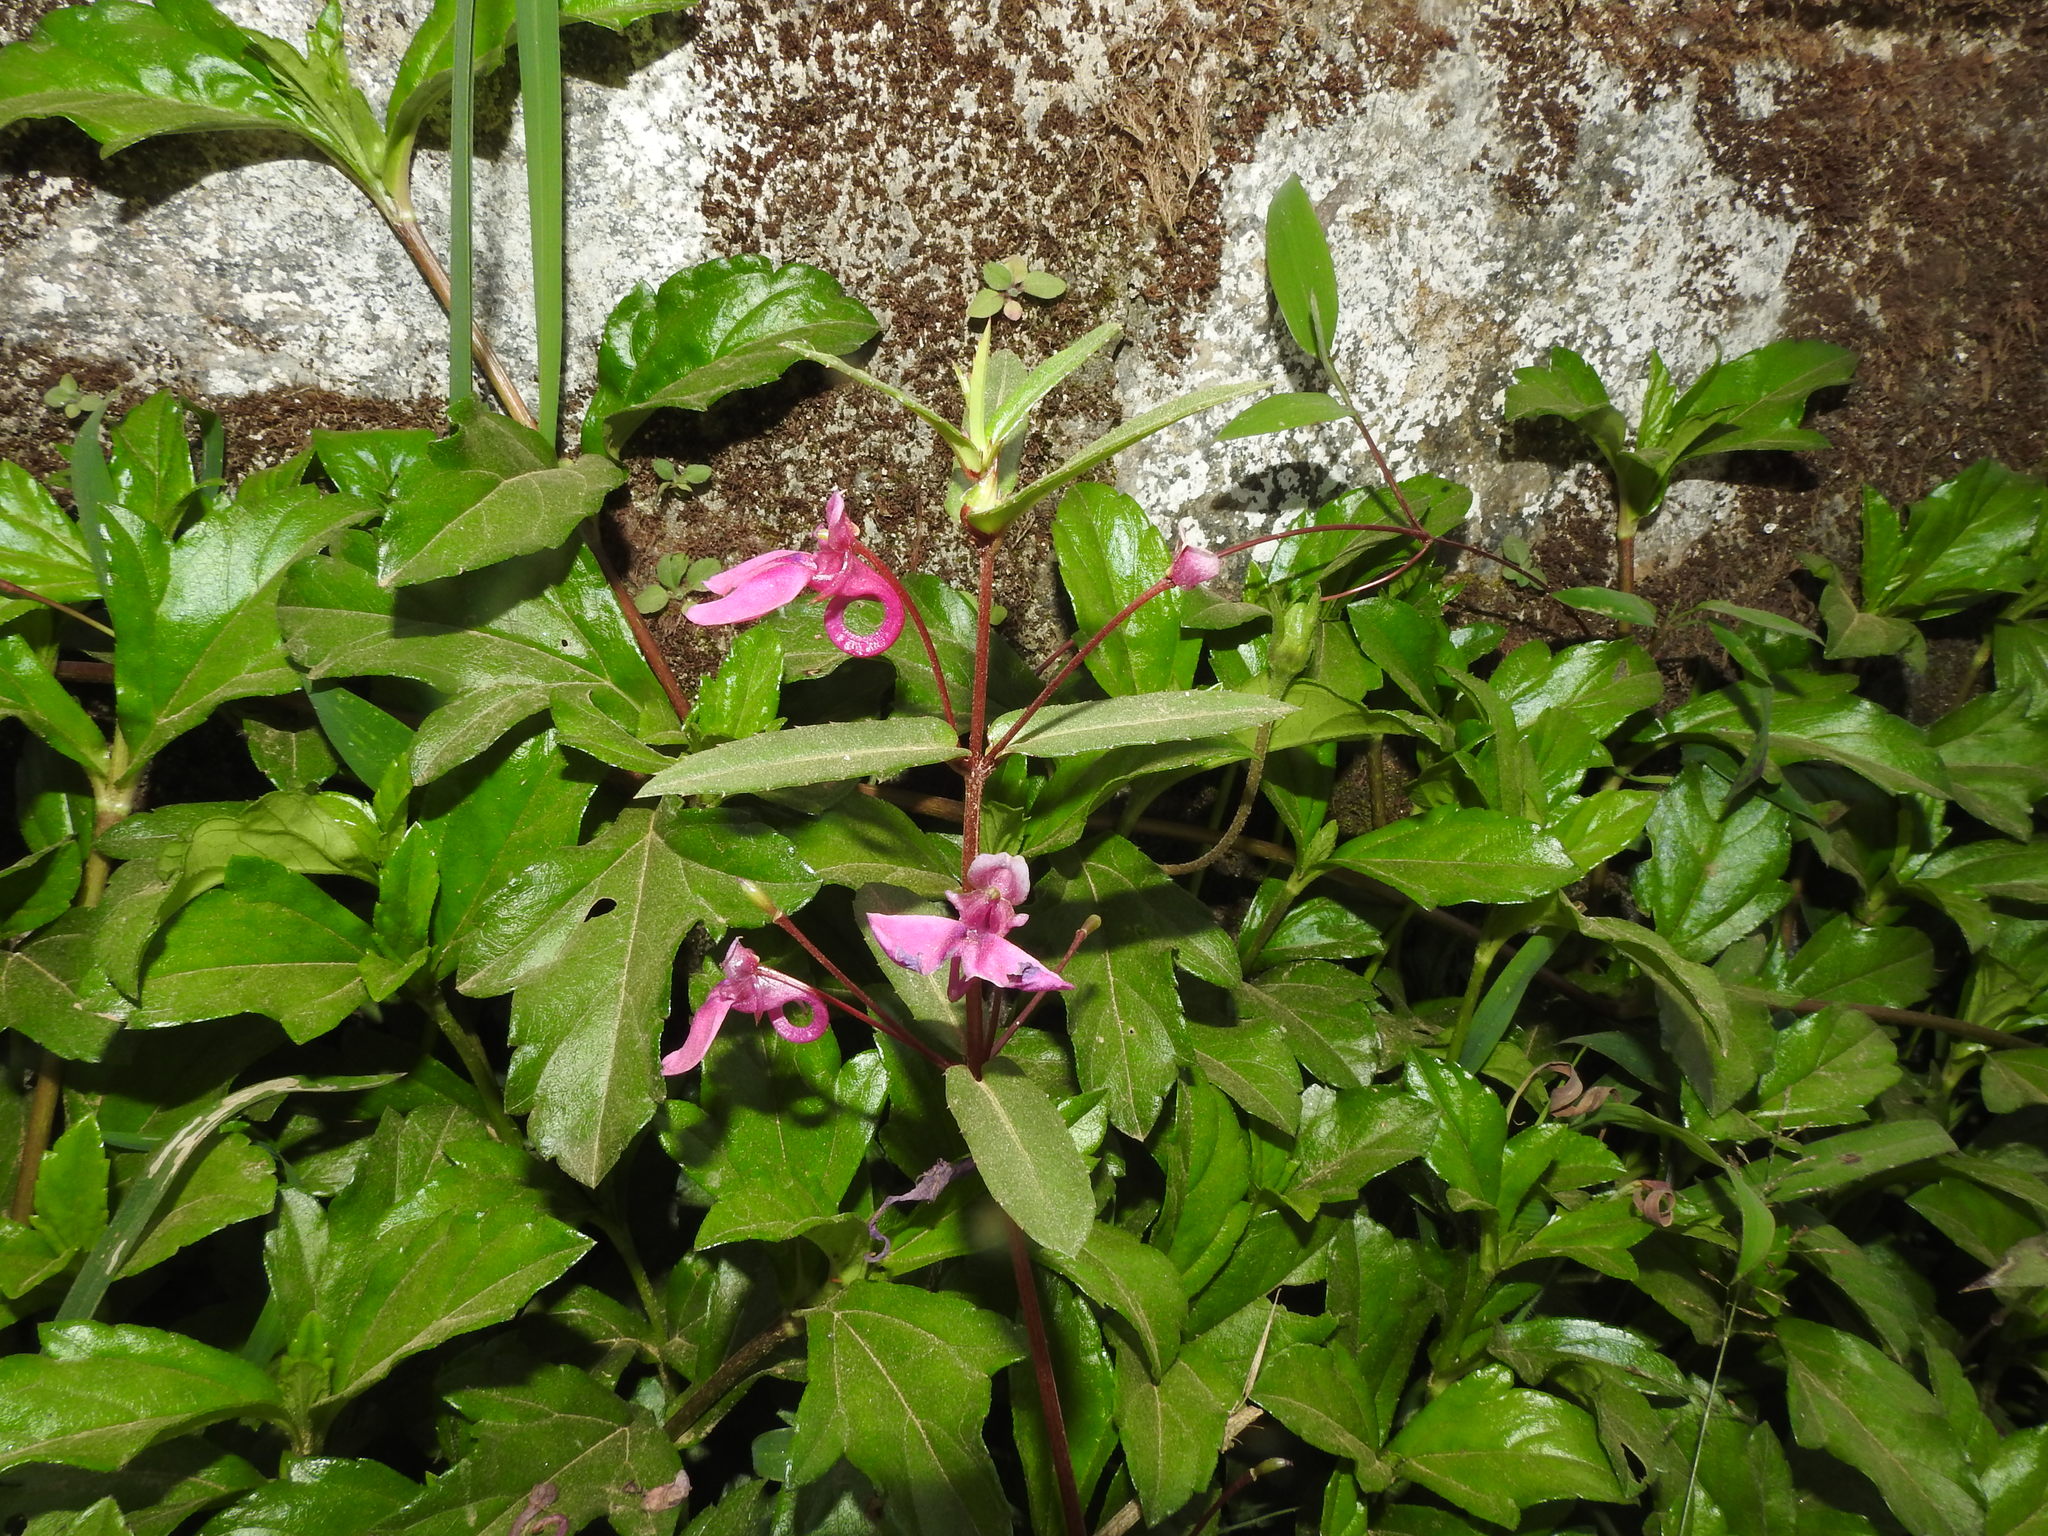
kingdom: Plantae
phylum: Tracheophyta
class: Magnoliopsida
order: Ericales
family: Balsaminaceae
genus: Impatiens
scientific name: Impatiens chinensis
